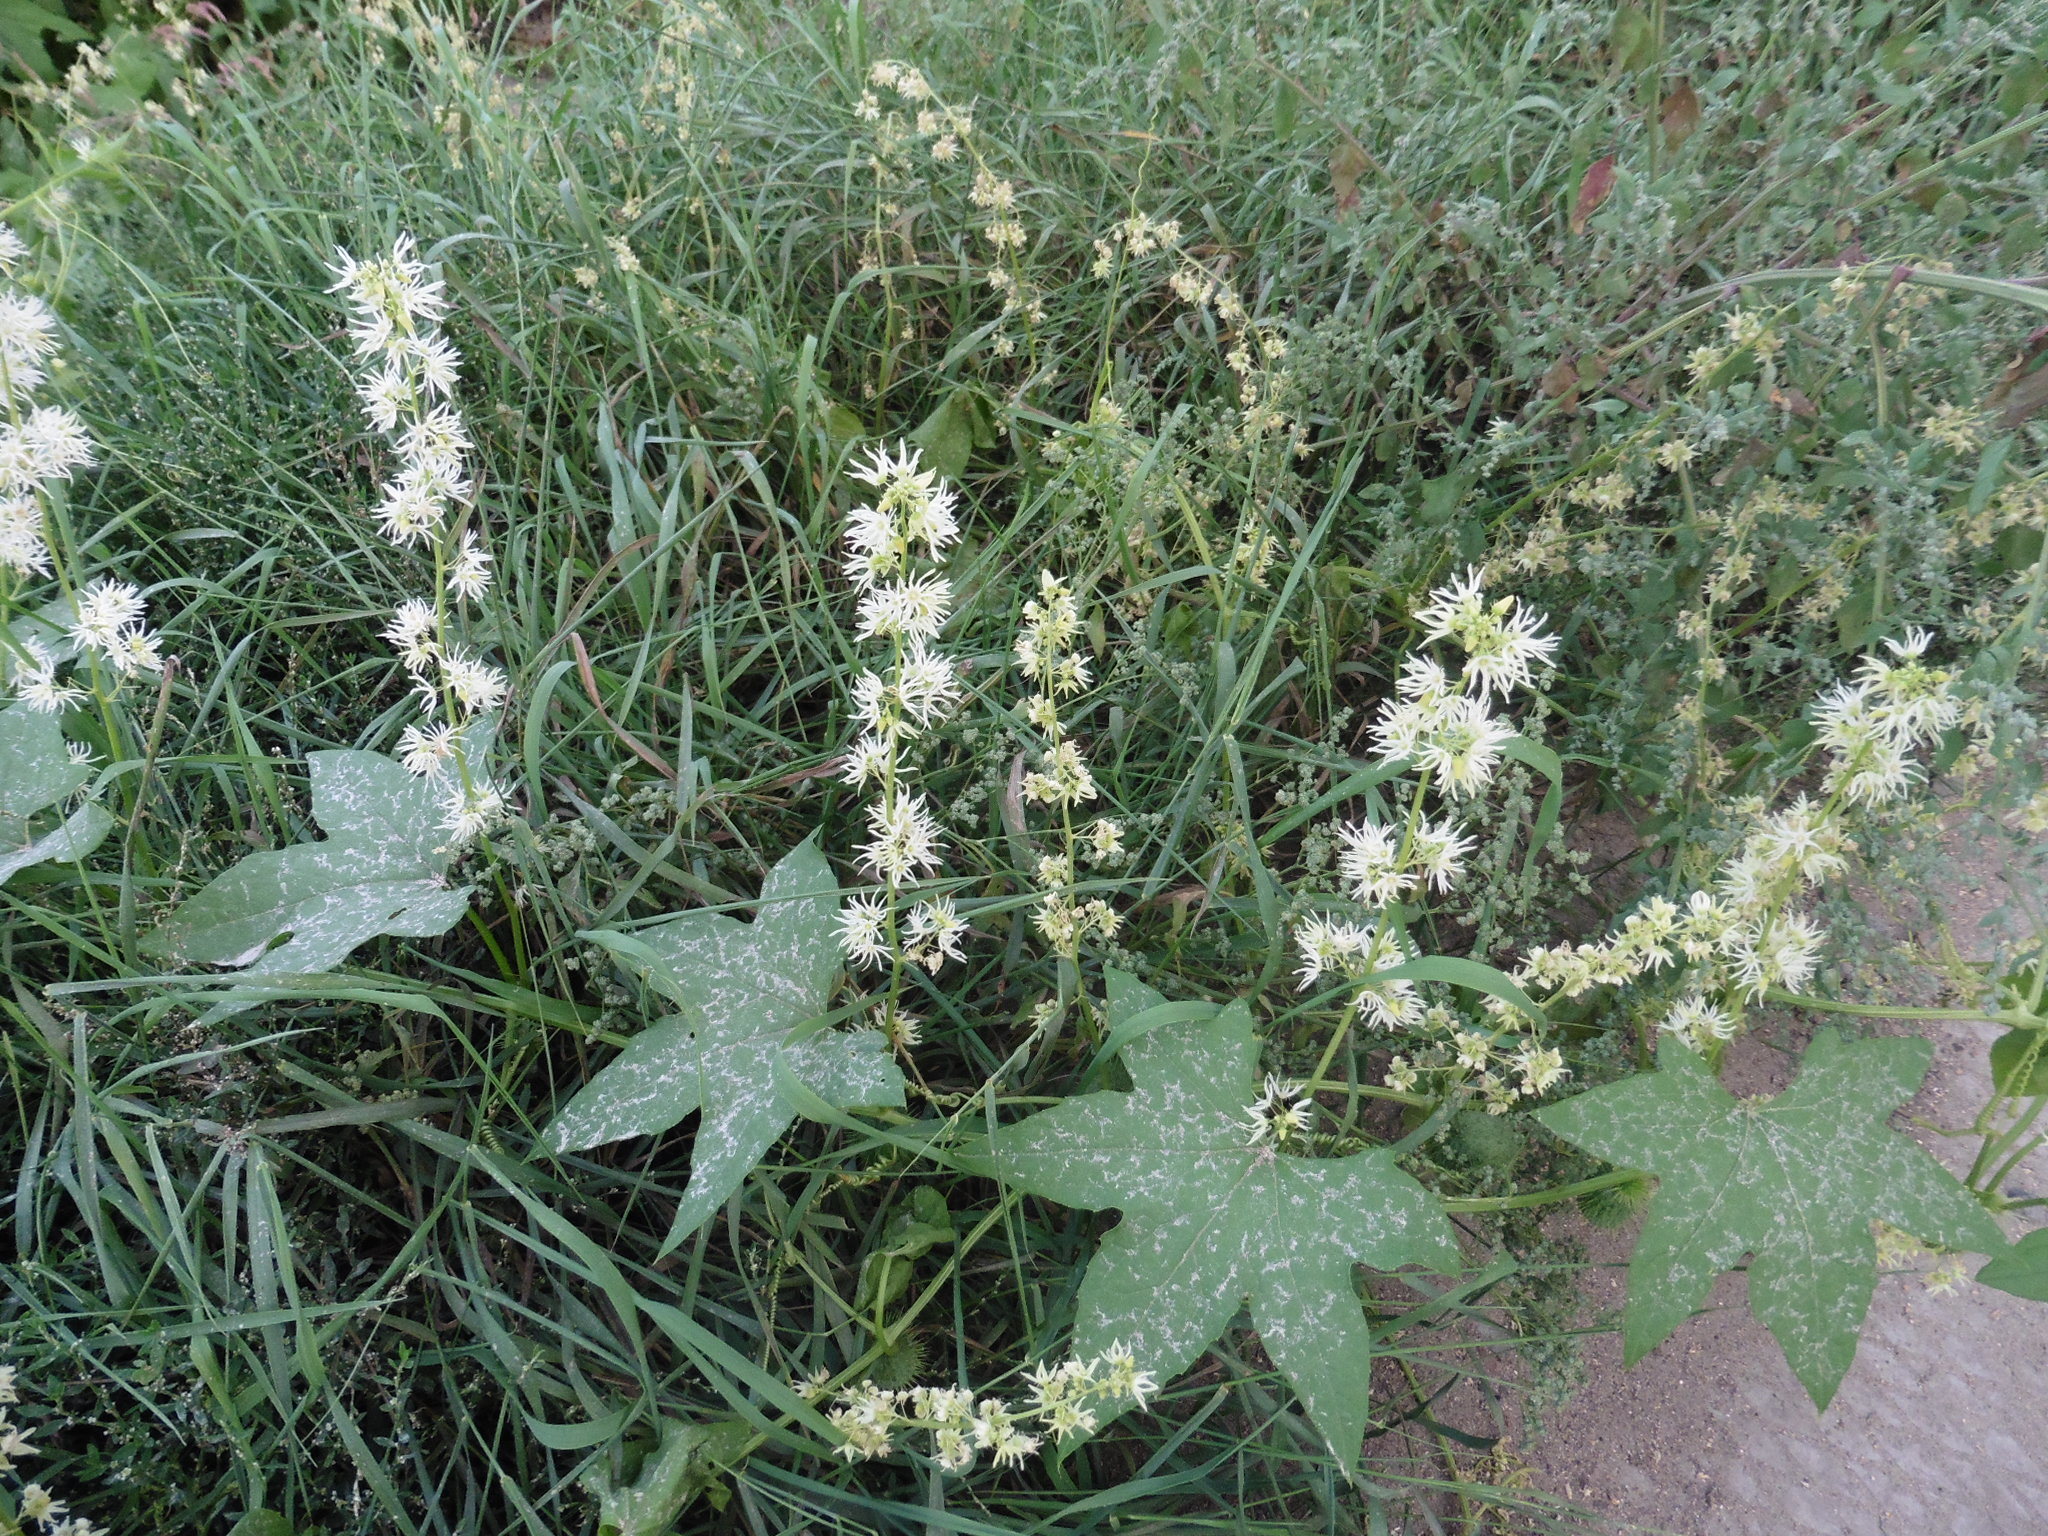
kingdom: Plantae
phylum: Tracheophyta
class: Magnoliopsida
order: Cucurbitales
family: Cucurbitaceae
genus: Echinocystis
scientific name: Echinocystis lobata
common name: Wild cucumber
